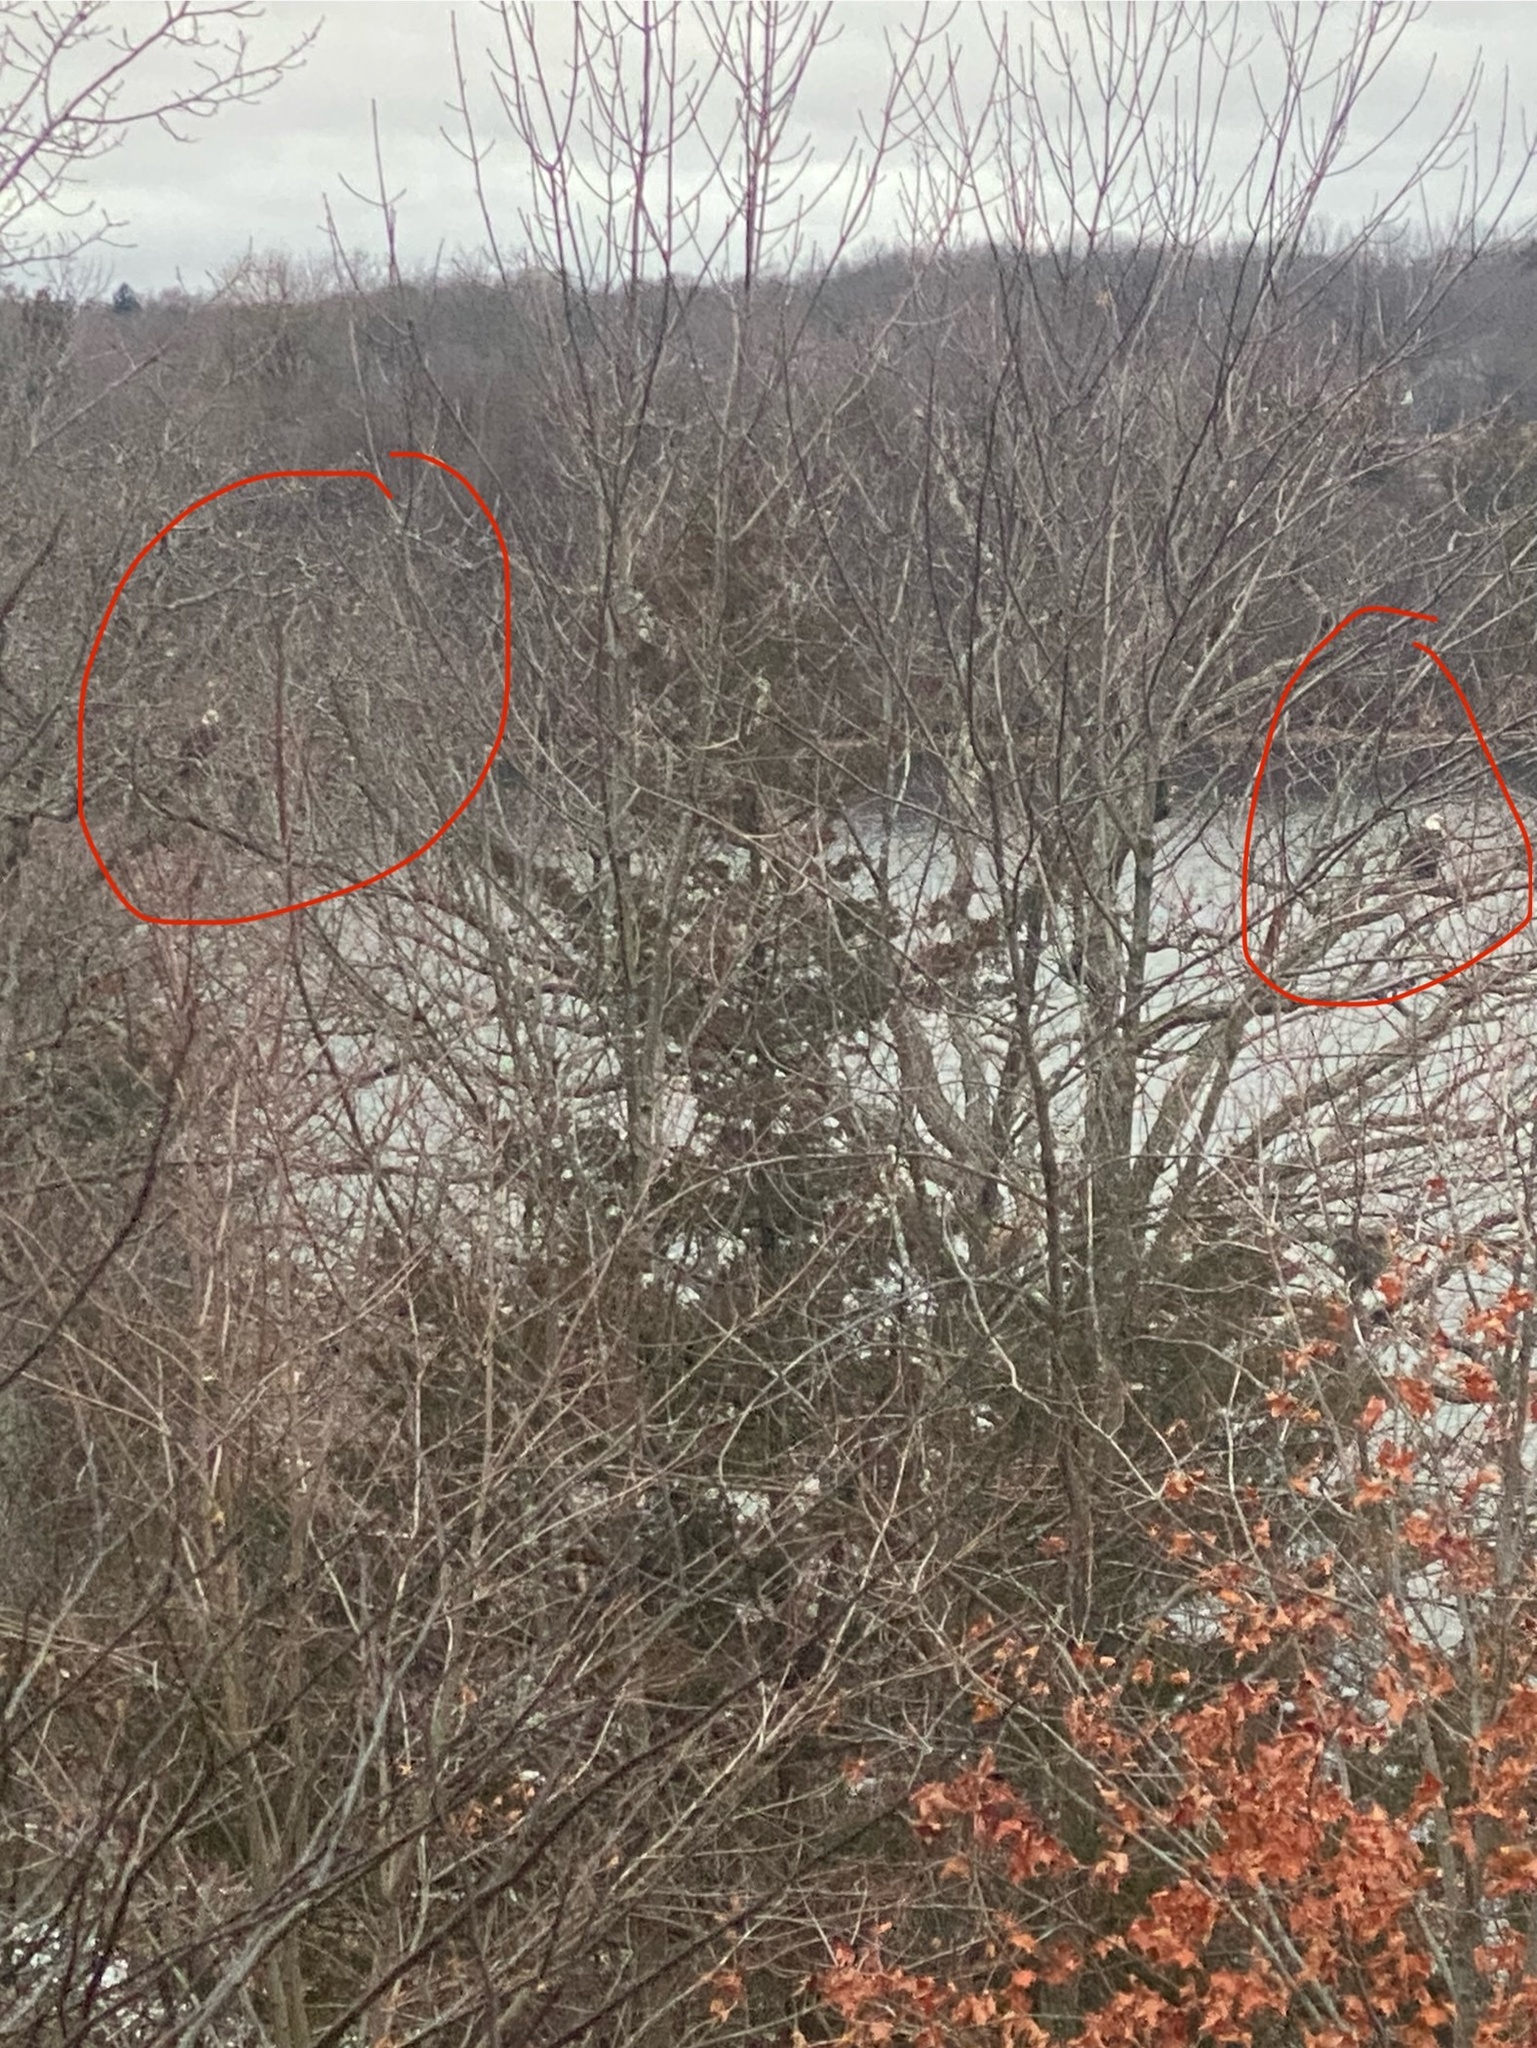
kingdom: Animalia
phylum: Chordata
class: Aves
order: Accipitriformes
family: Accipitridae
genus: Haliaeetus
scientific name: Haliaeetus leucocephalus
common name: Bald eagle
